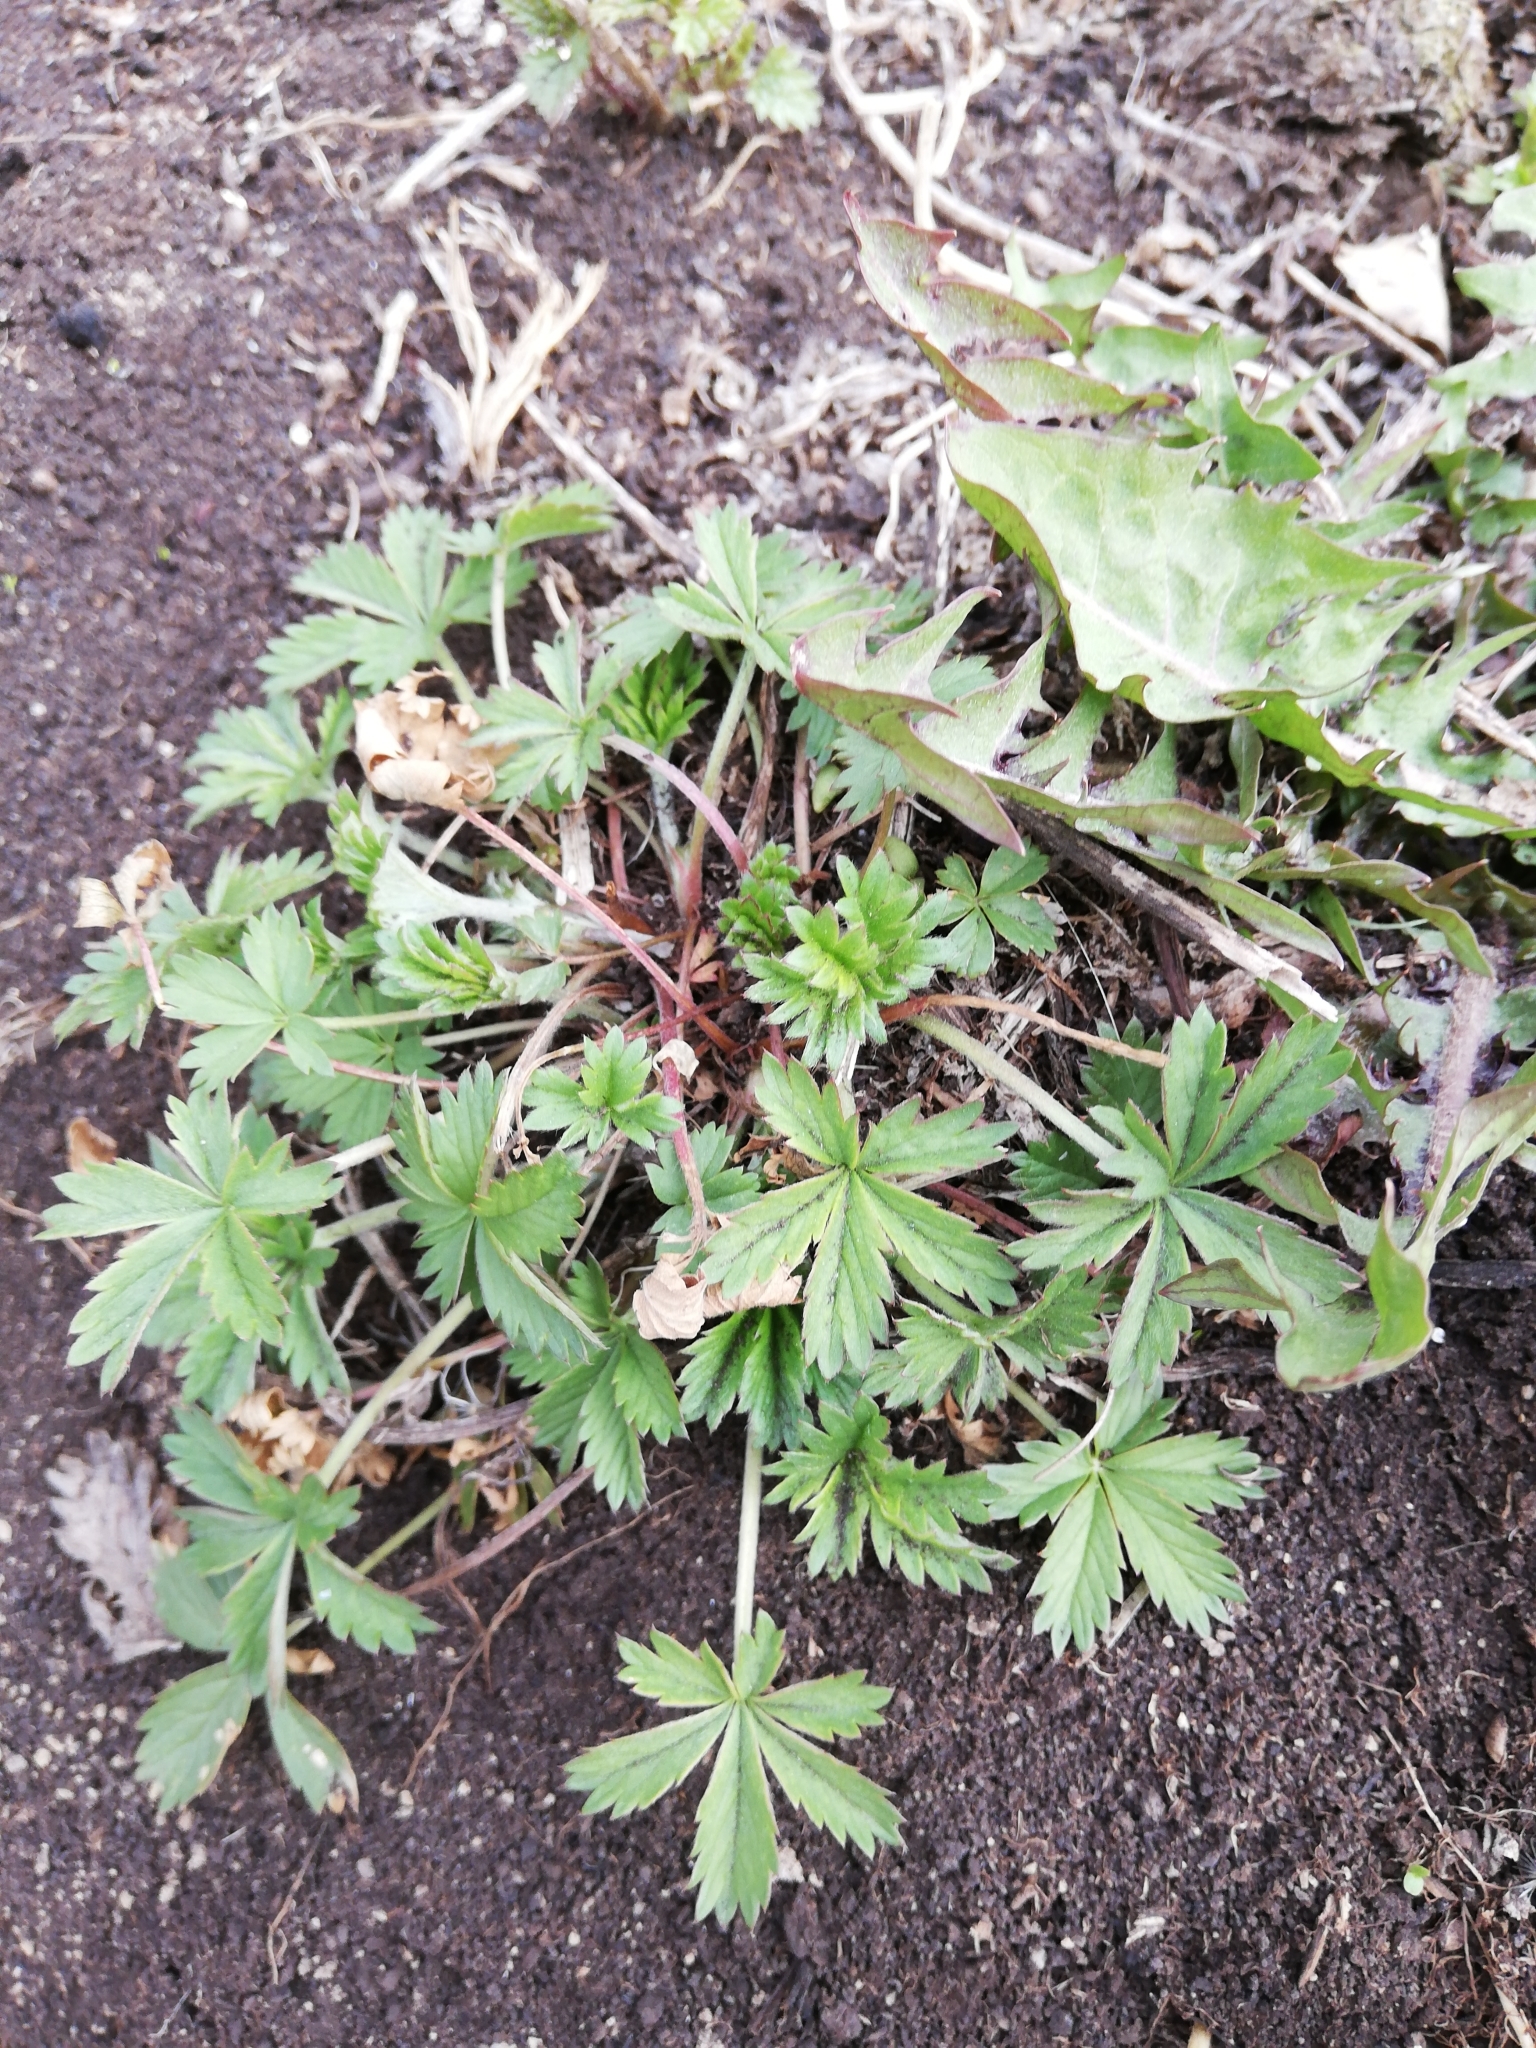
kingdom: Plantae
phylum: Tracheophyta
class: Magnoliopsida
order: Rosales
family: Rosaceae
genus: Potentilla
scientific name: Potentilla argentea
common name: Hoary cinquefoil
